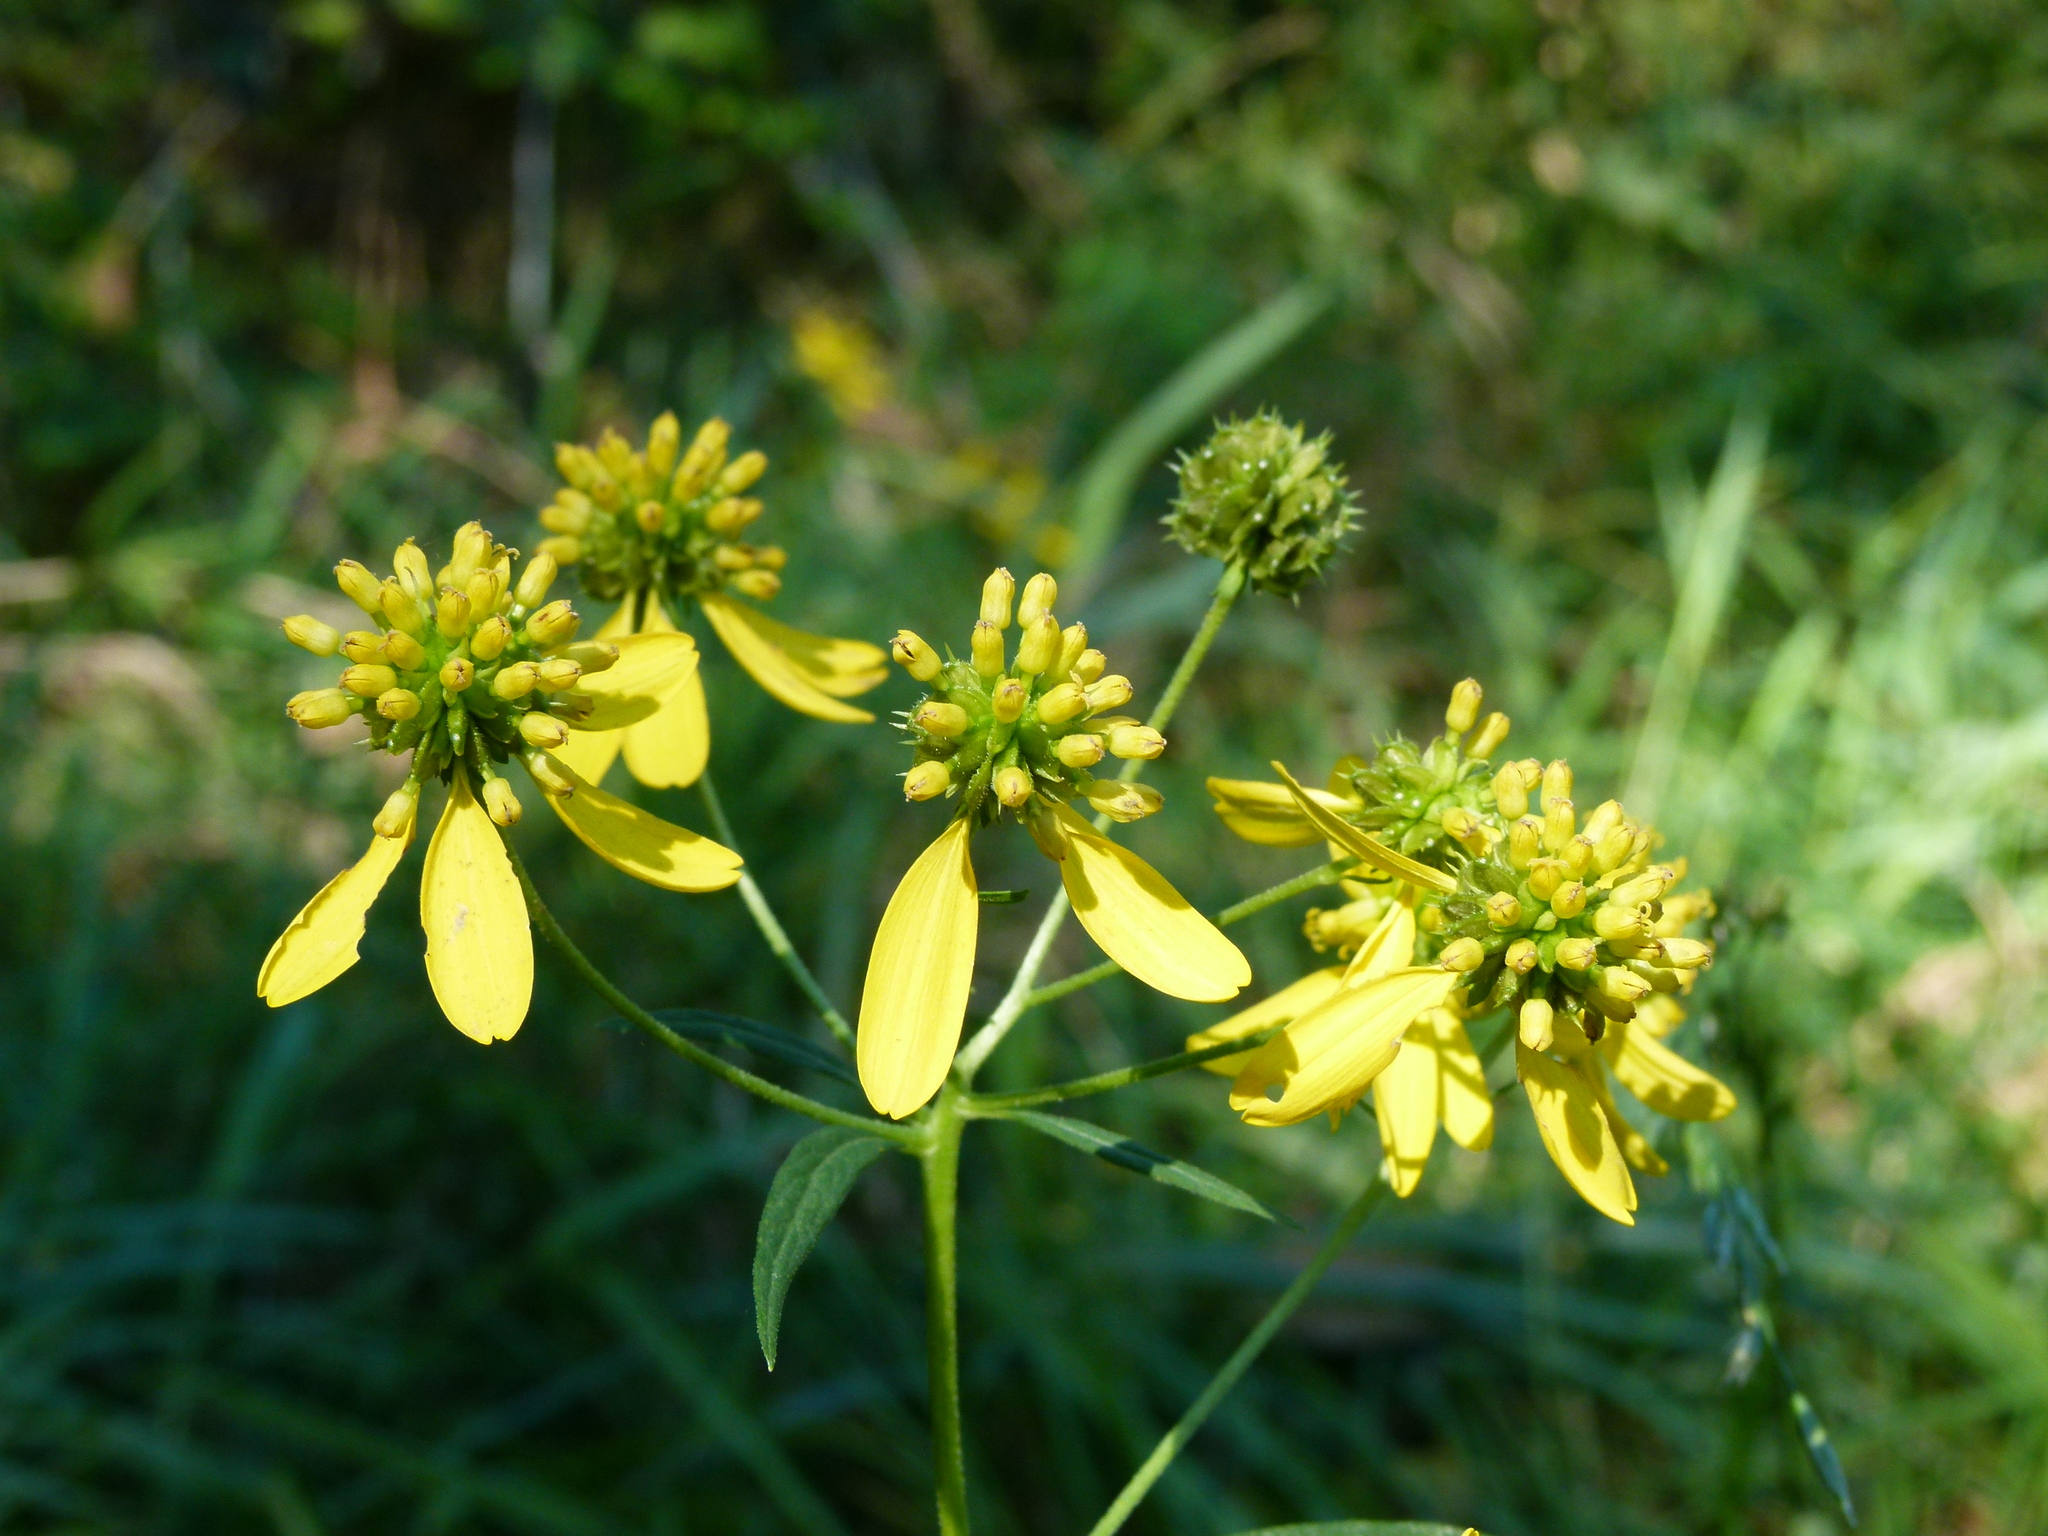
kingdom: Plantae
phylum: Tracheophyta
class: Magnoliopsida
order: Asterales
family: Asteraceae
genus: Verbesina
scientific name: Verbesina alternifolia
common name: Wingstem
